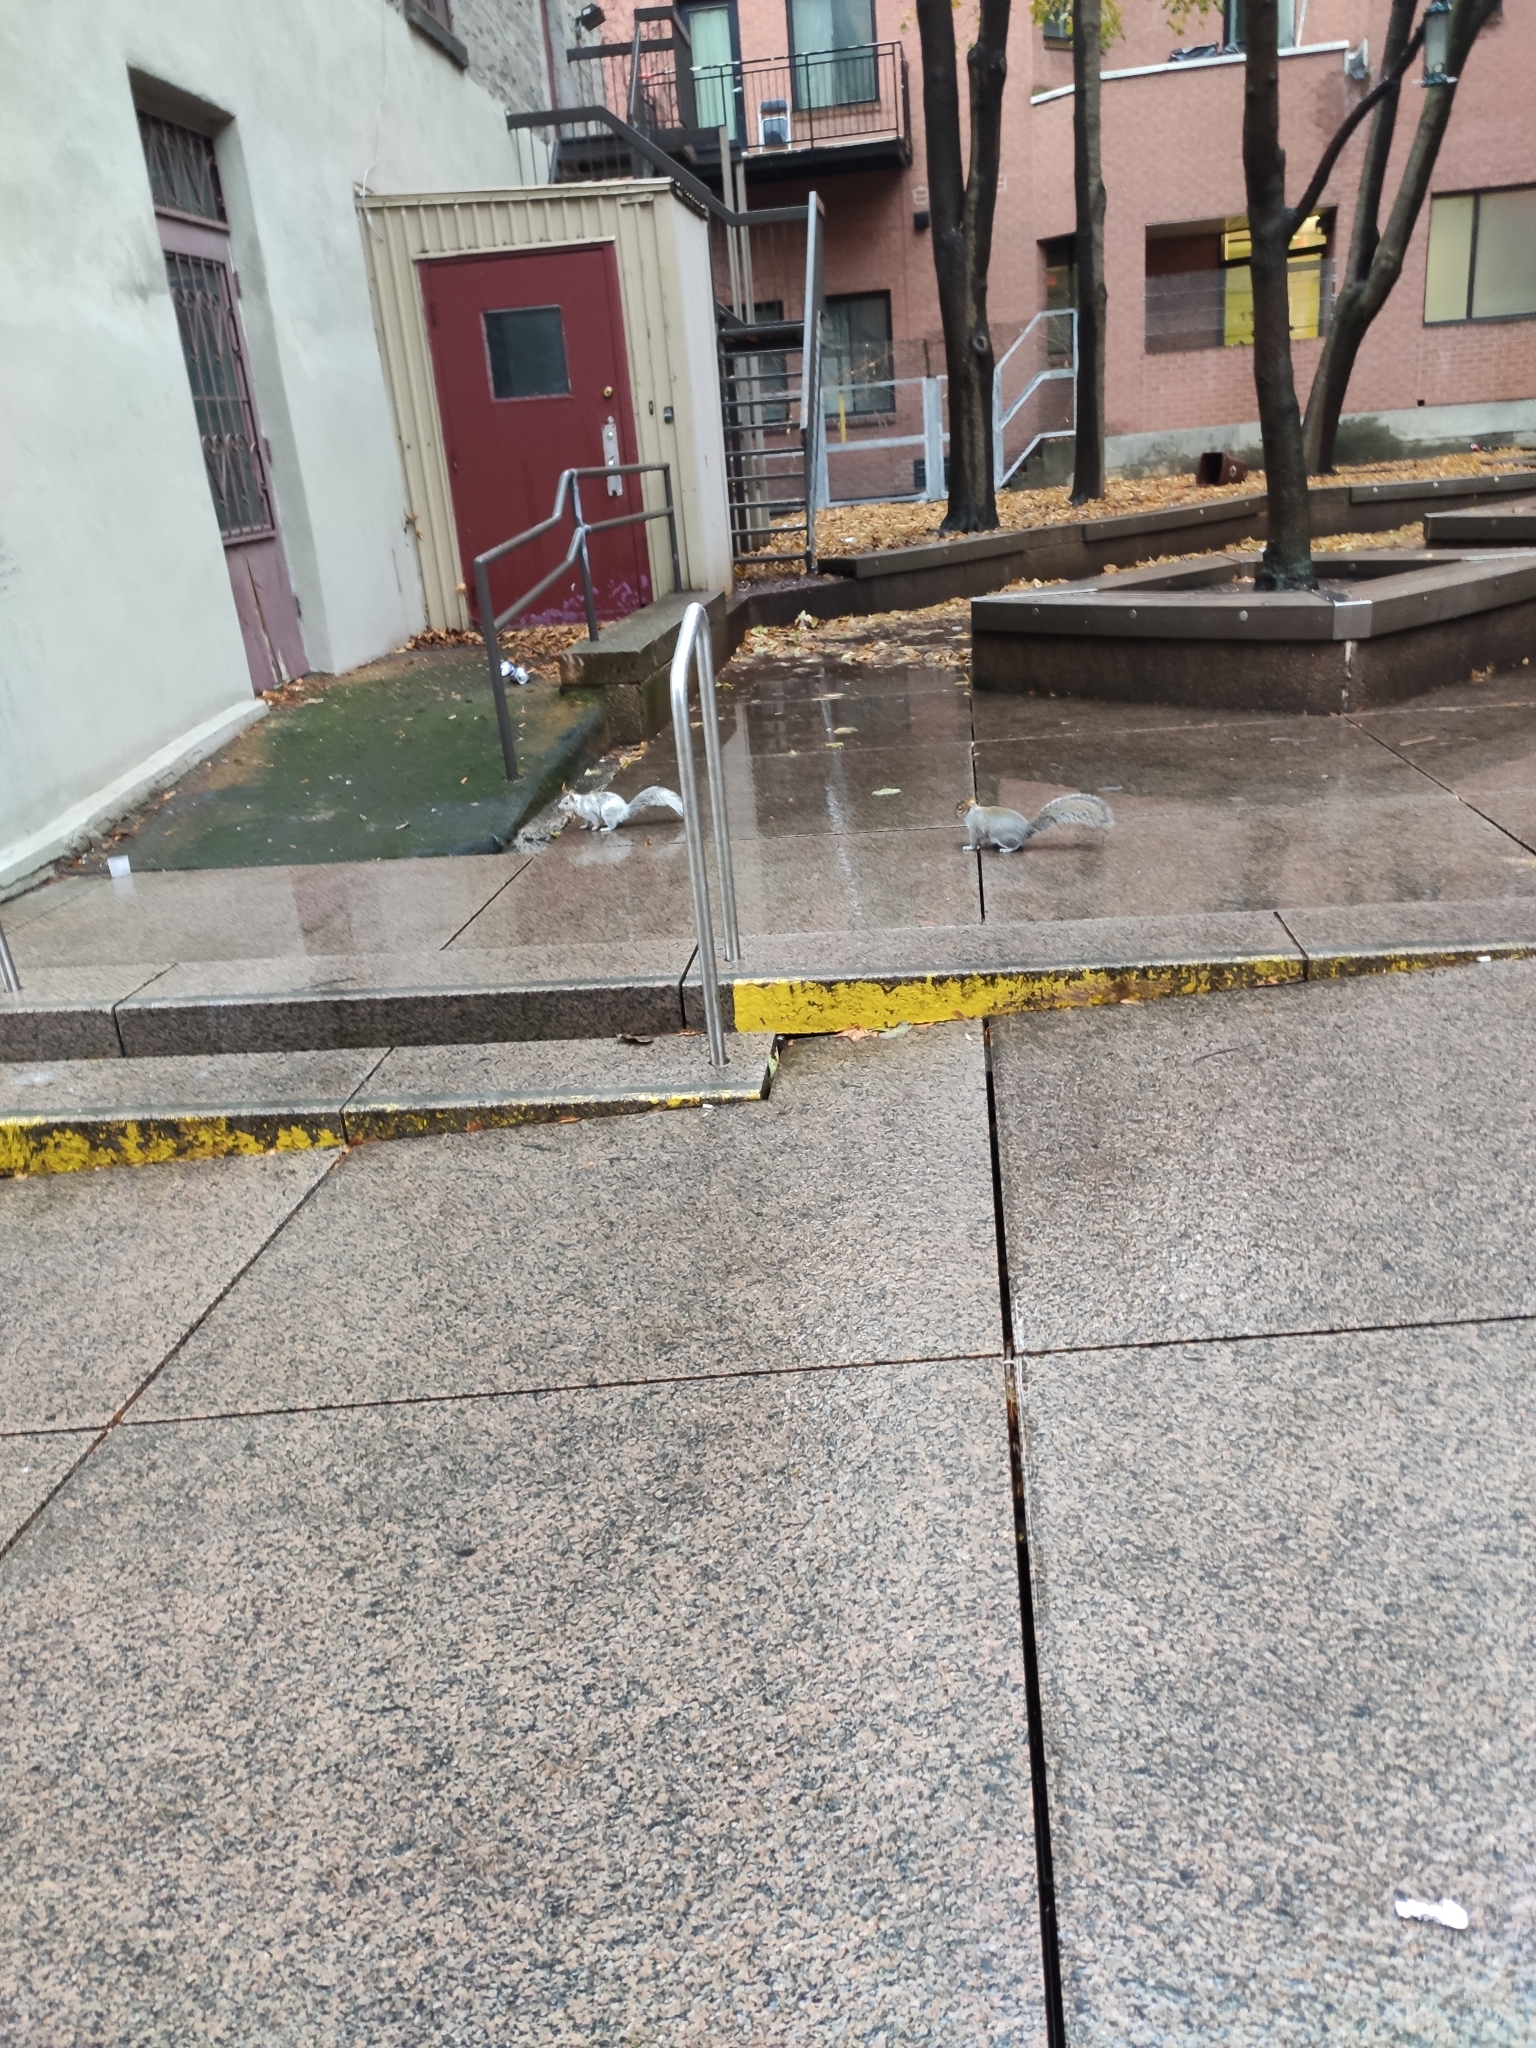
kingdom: Animalia
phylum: Chordata
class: Mammalia
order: Rodentia
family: Sciuridae
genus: Sciurus
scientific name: Sciurus carolinensis
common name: Eastern gray squirrel
